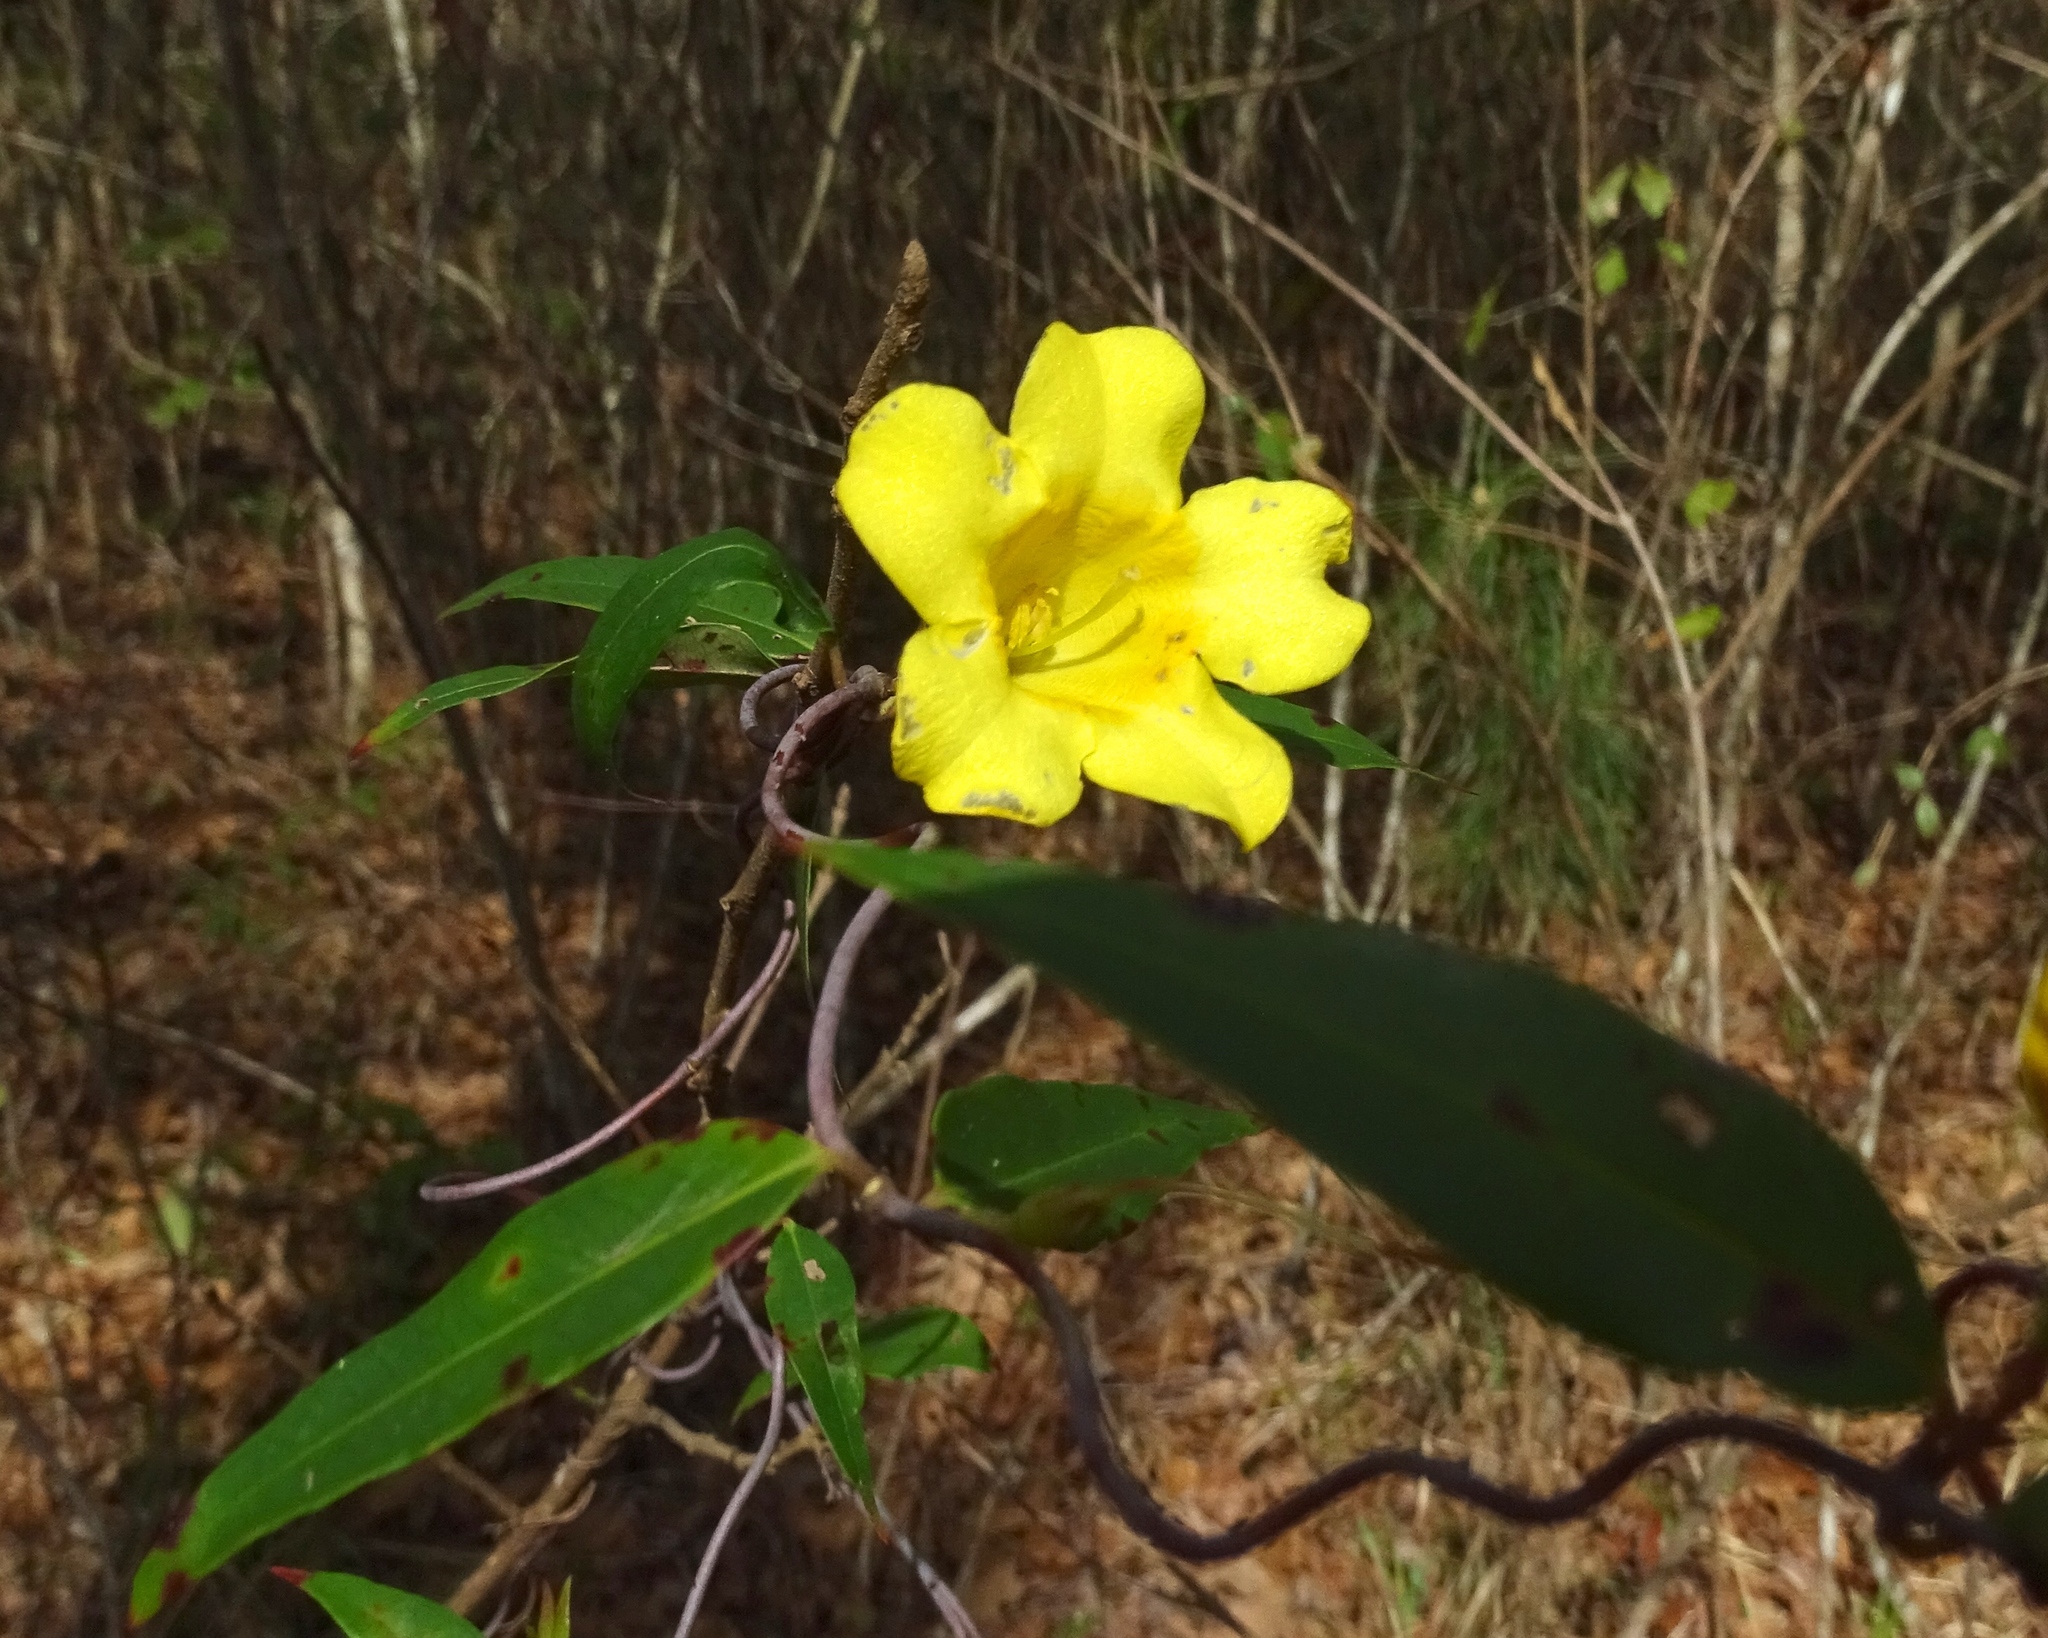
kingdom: Plantae
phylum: Tracheophyta
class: Magnoliopsida
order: Gentianales
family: Gelsemiaceae
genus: Gelsemium
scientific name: Gelsemium sempervirens
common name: Carolina-jasmine
